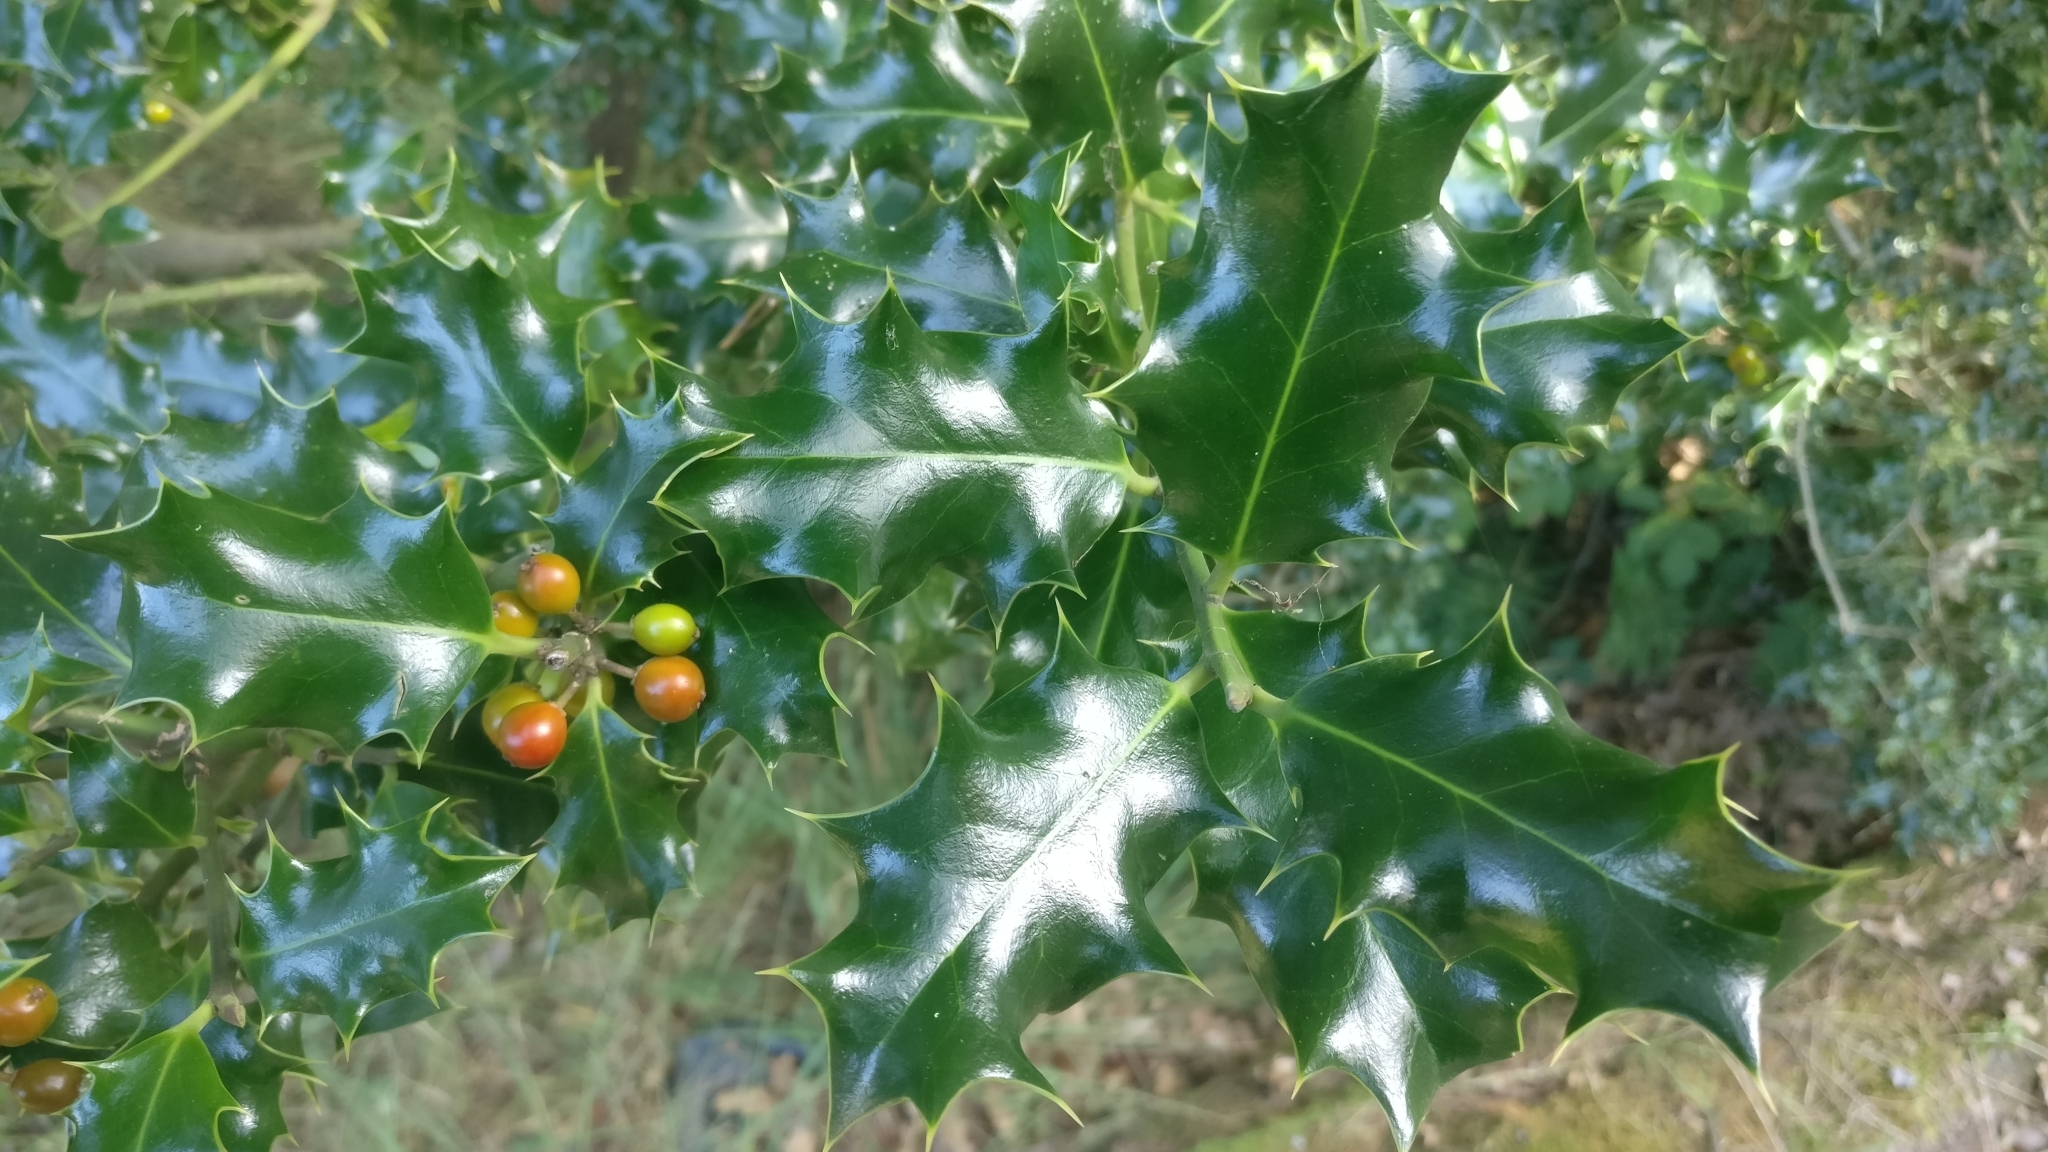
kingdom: Plantae
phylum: Tracheophyta
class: Magnoliopsida
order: Aquifoliales
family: Aquifoliaceae
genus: Ilex
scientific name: Ilex aquifolium
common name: English holly
